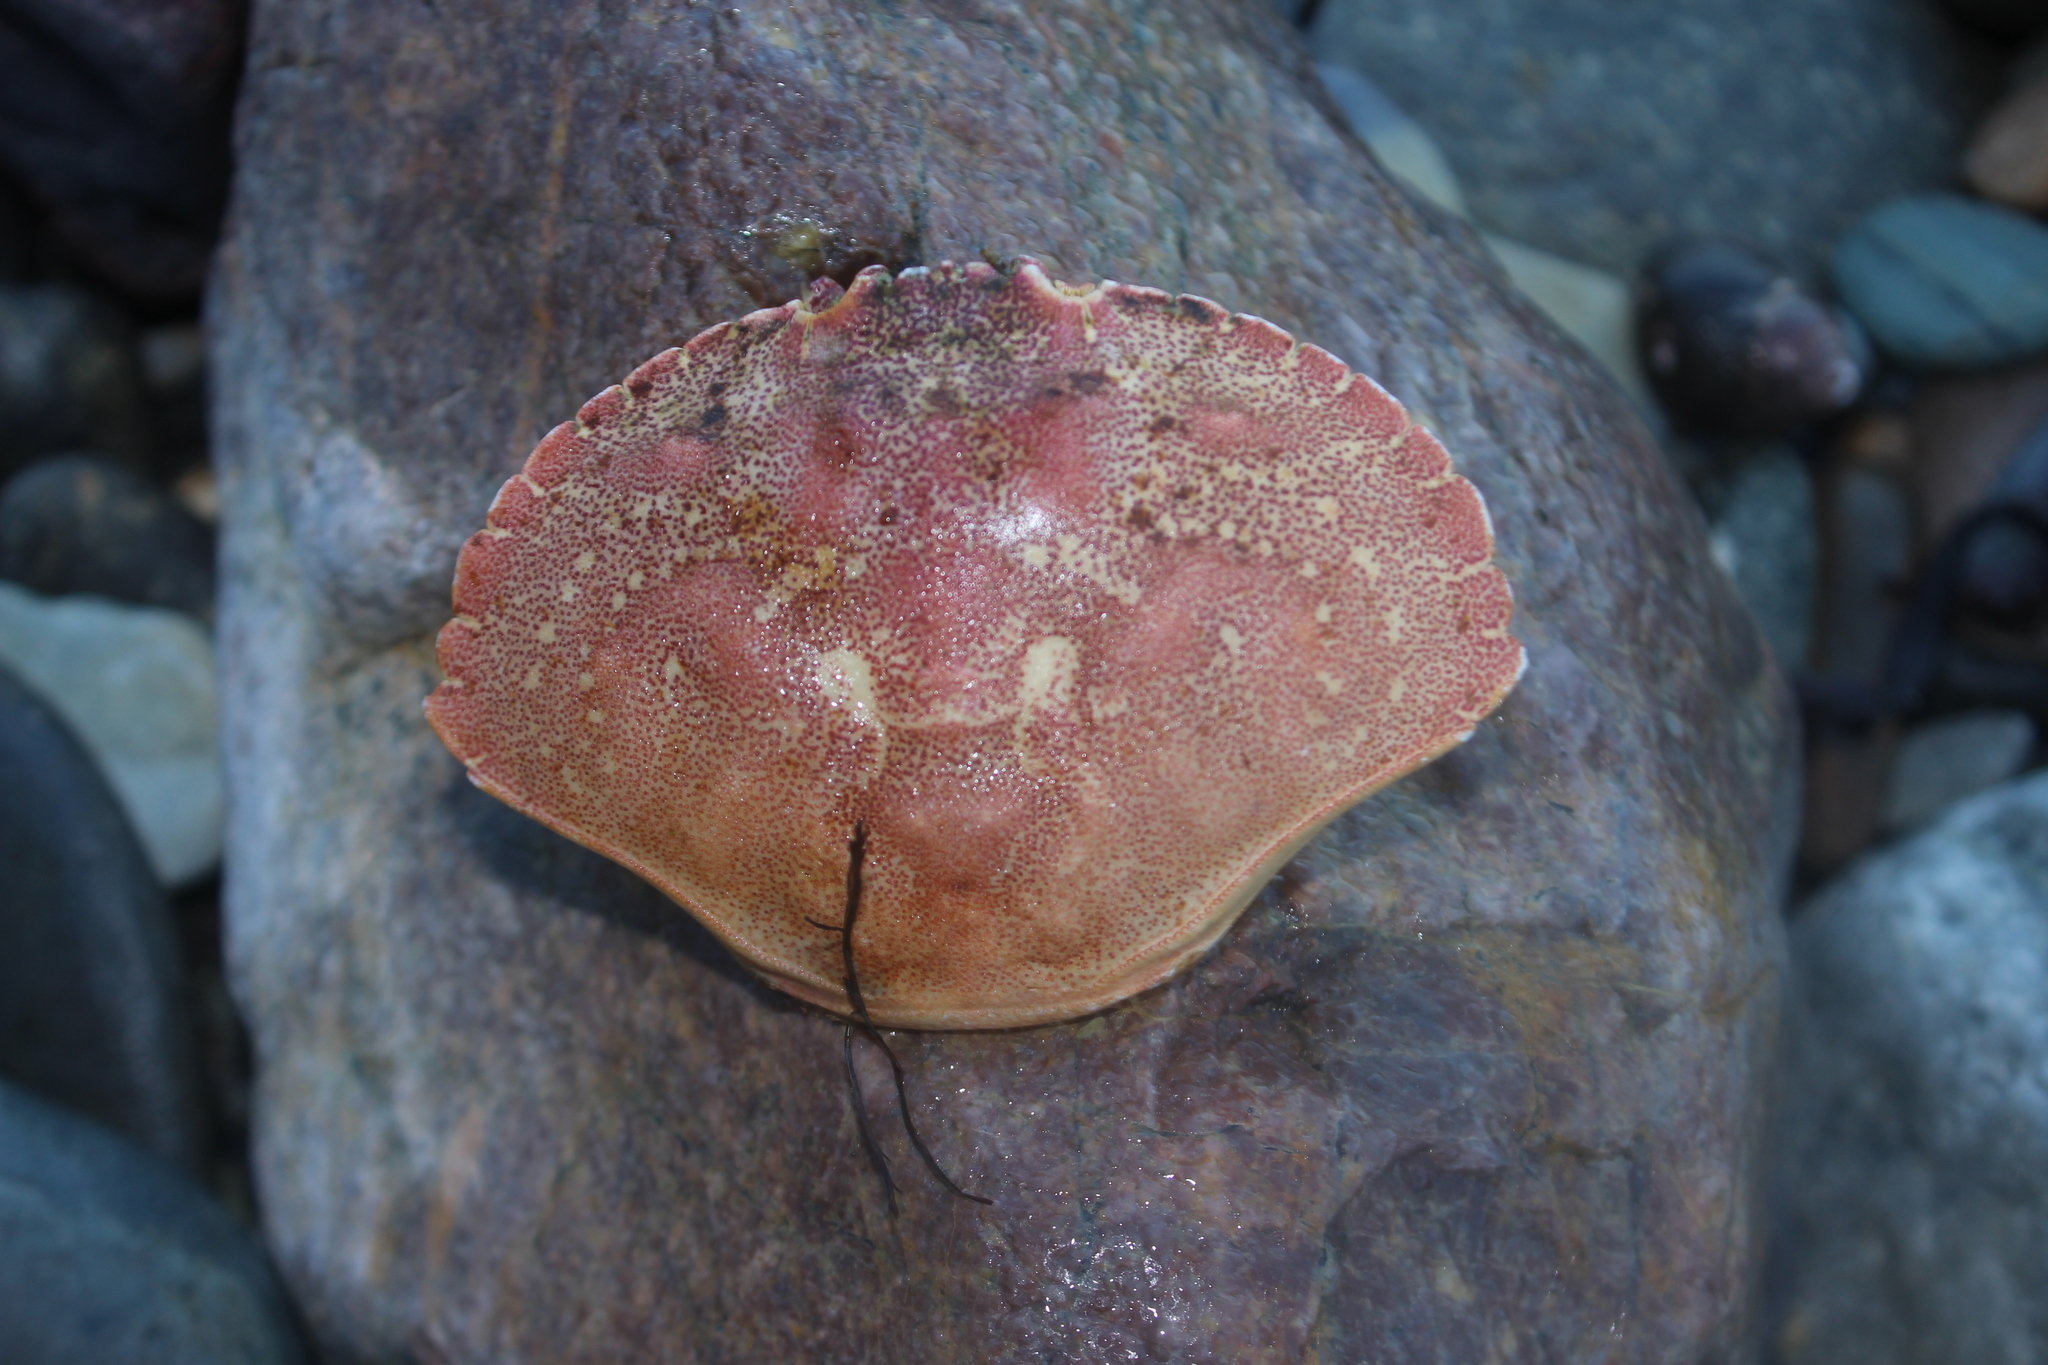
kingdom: Animalia
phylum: Arthropoda
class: Malacostraca
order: Decapoda
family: Cancridae
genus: Cancer
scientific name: Cancer irroratus
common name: Atlantic rock crab
